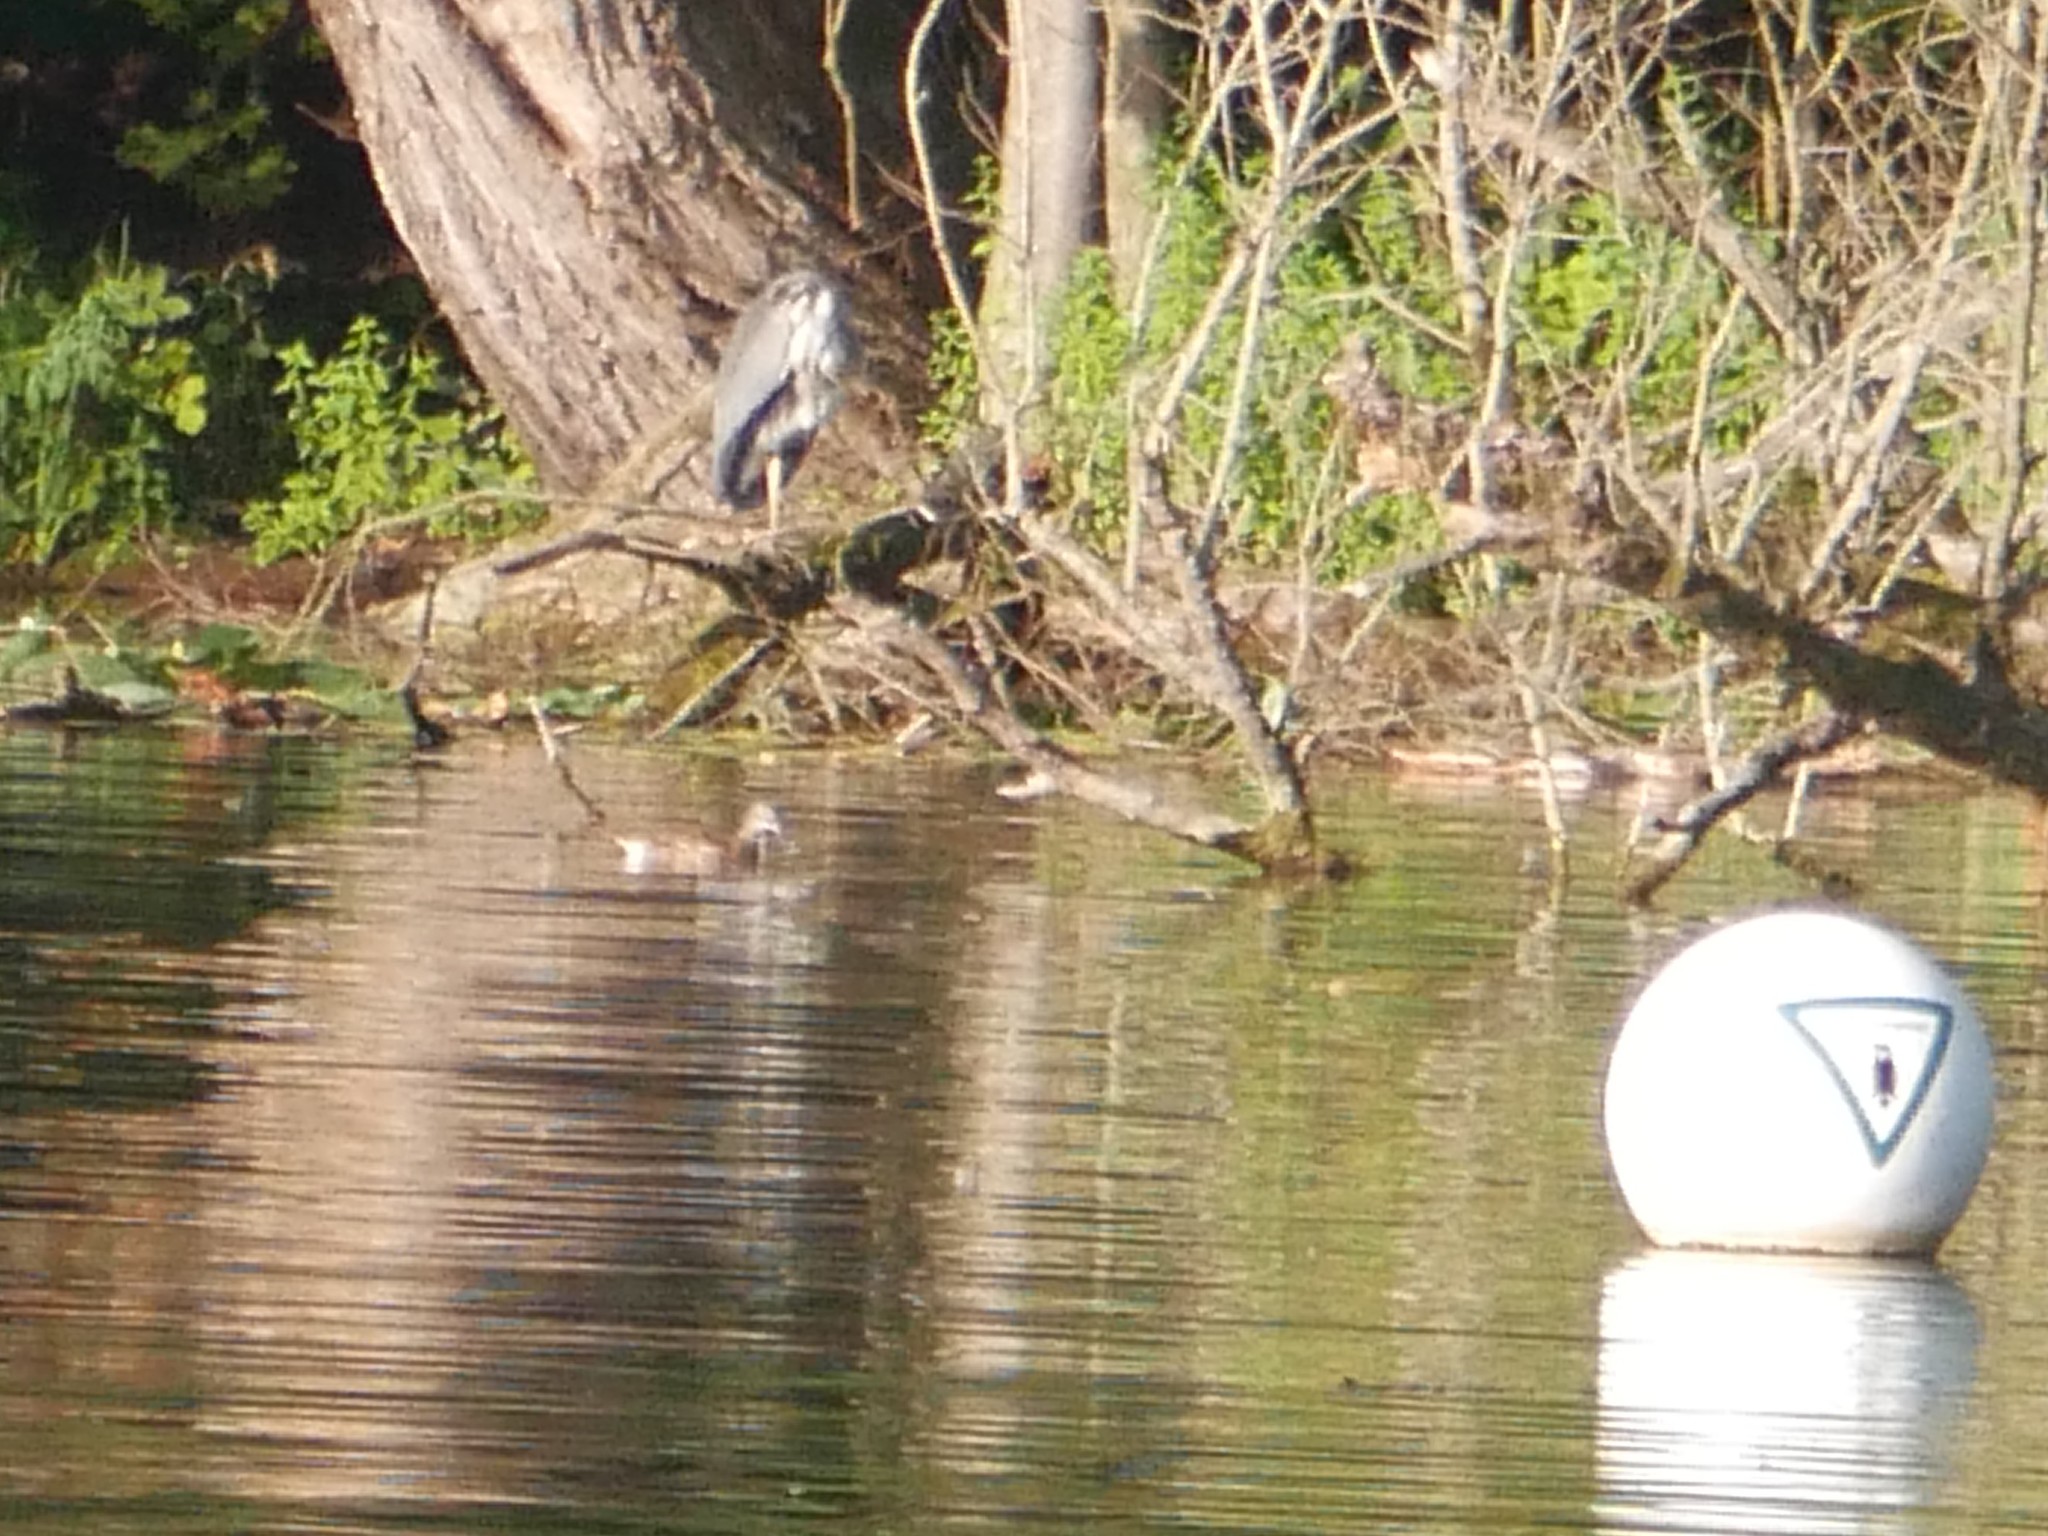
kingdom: Animalia
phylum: Chordata
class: Aves
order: Anseriformes
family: Anatidae
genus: Aix
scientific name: Aix galericulata
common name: Mandarin duck
